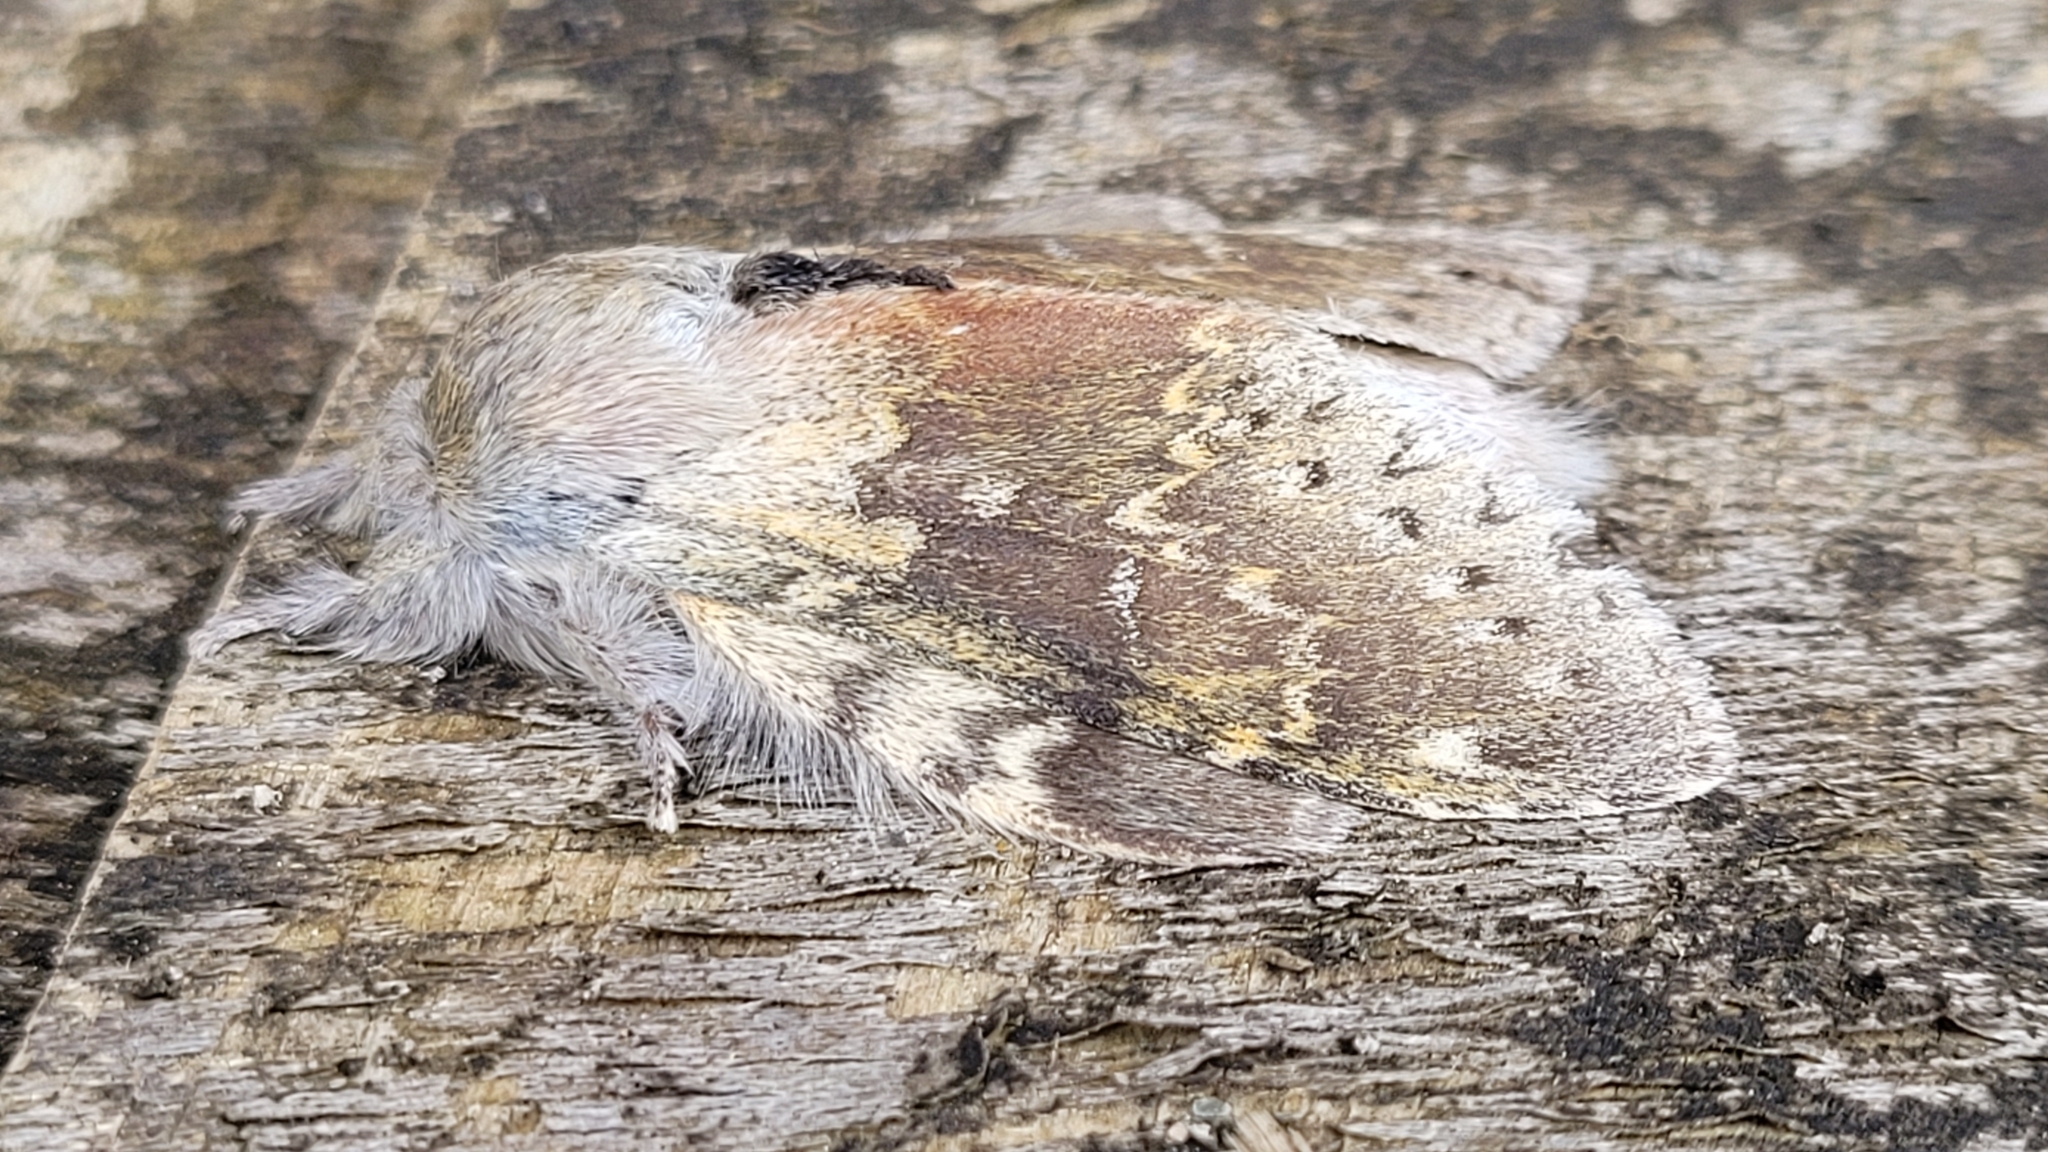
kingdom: Animalia
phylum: Arthropoda
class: Insecta
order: Lepidoptera
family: Notodontidae
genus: Stauropus
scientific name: Stauropus fagi
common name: Lobster moth
